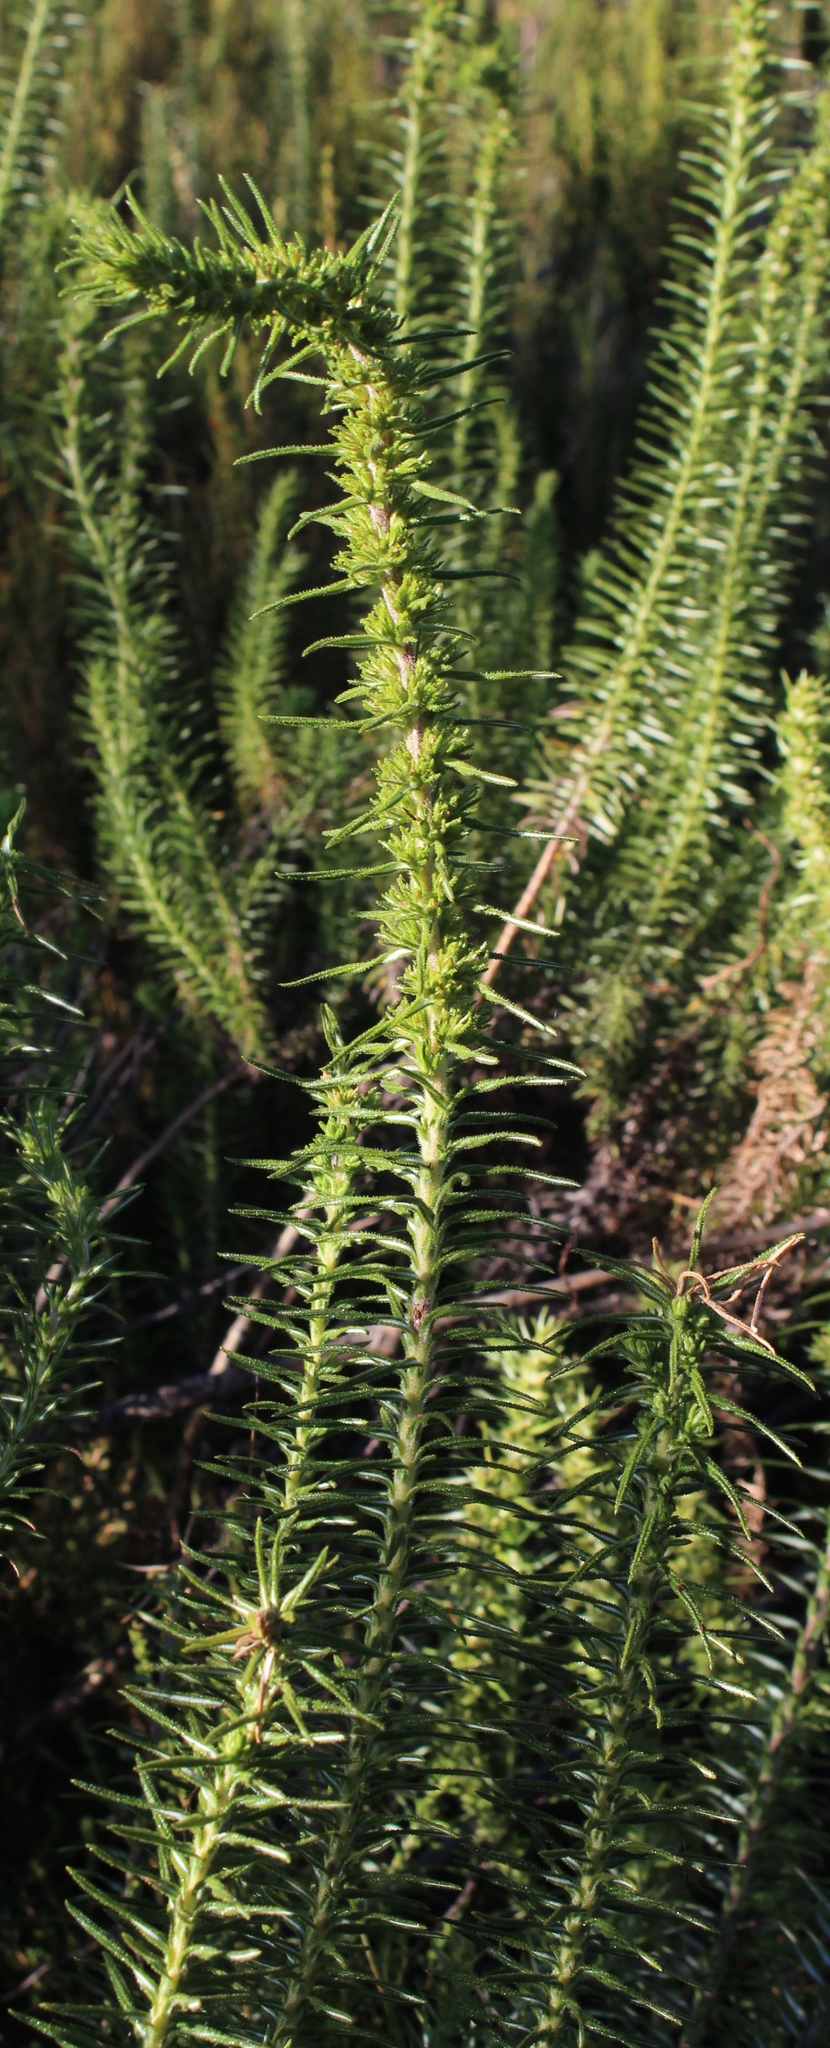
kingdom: Plantae
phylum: Tracheophyta
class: Magnoliopsida
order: Asterales
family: Asteraceae
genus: Myrovernix
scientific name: Myrovernix glandulosus
